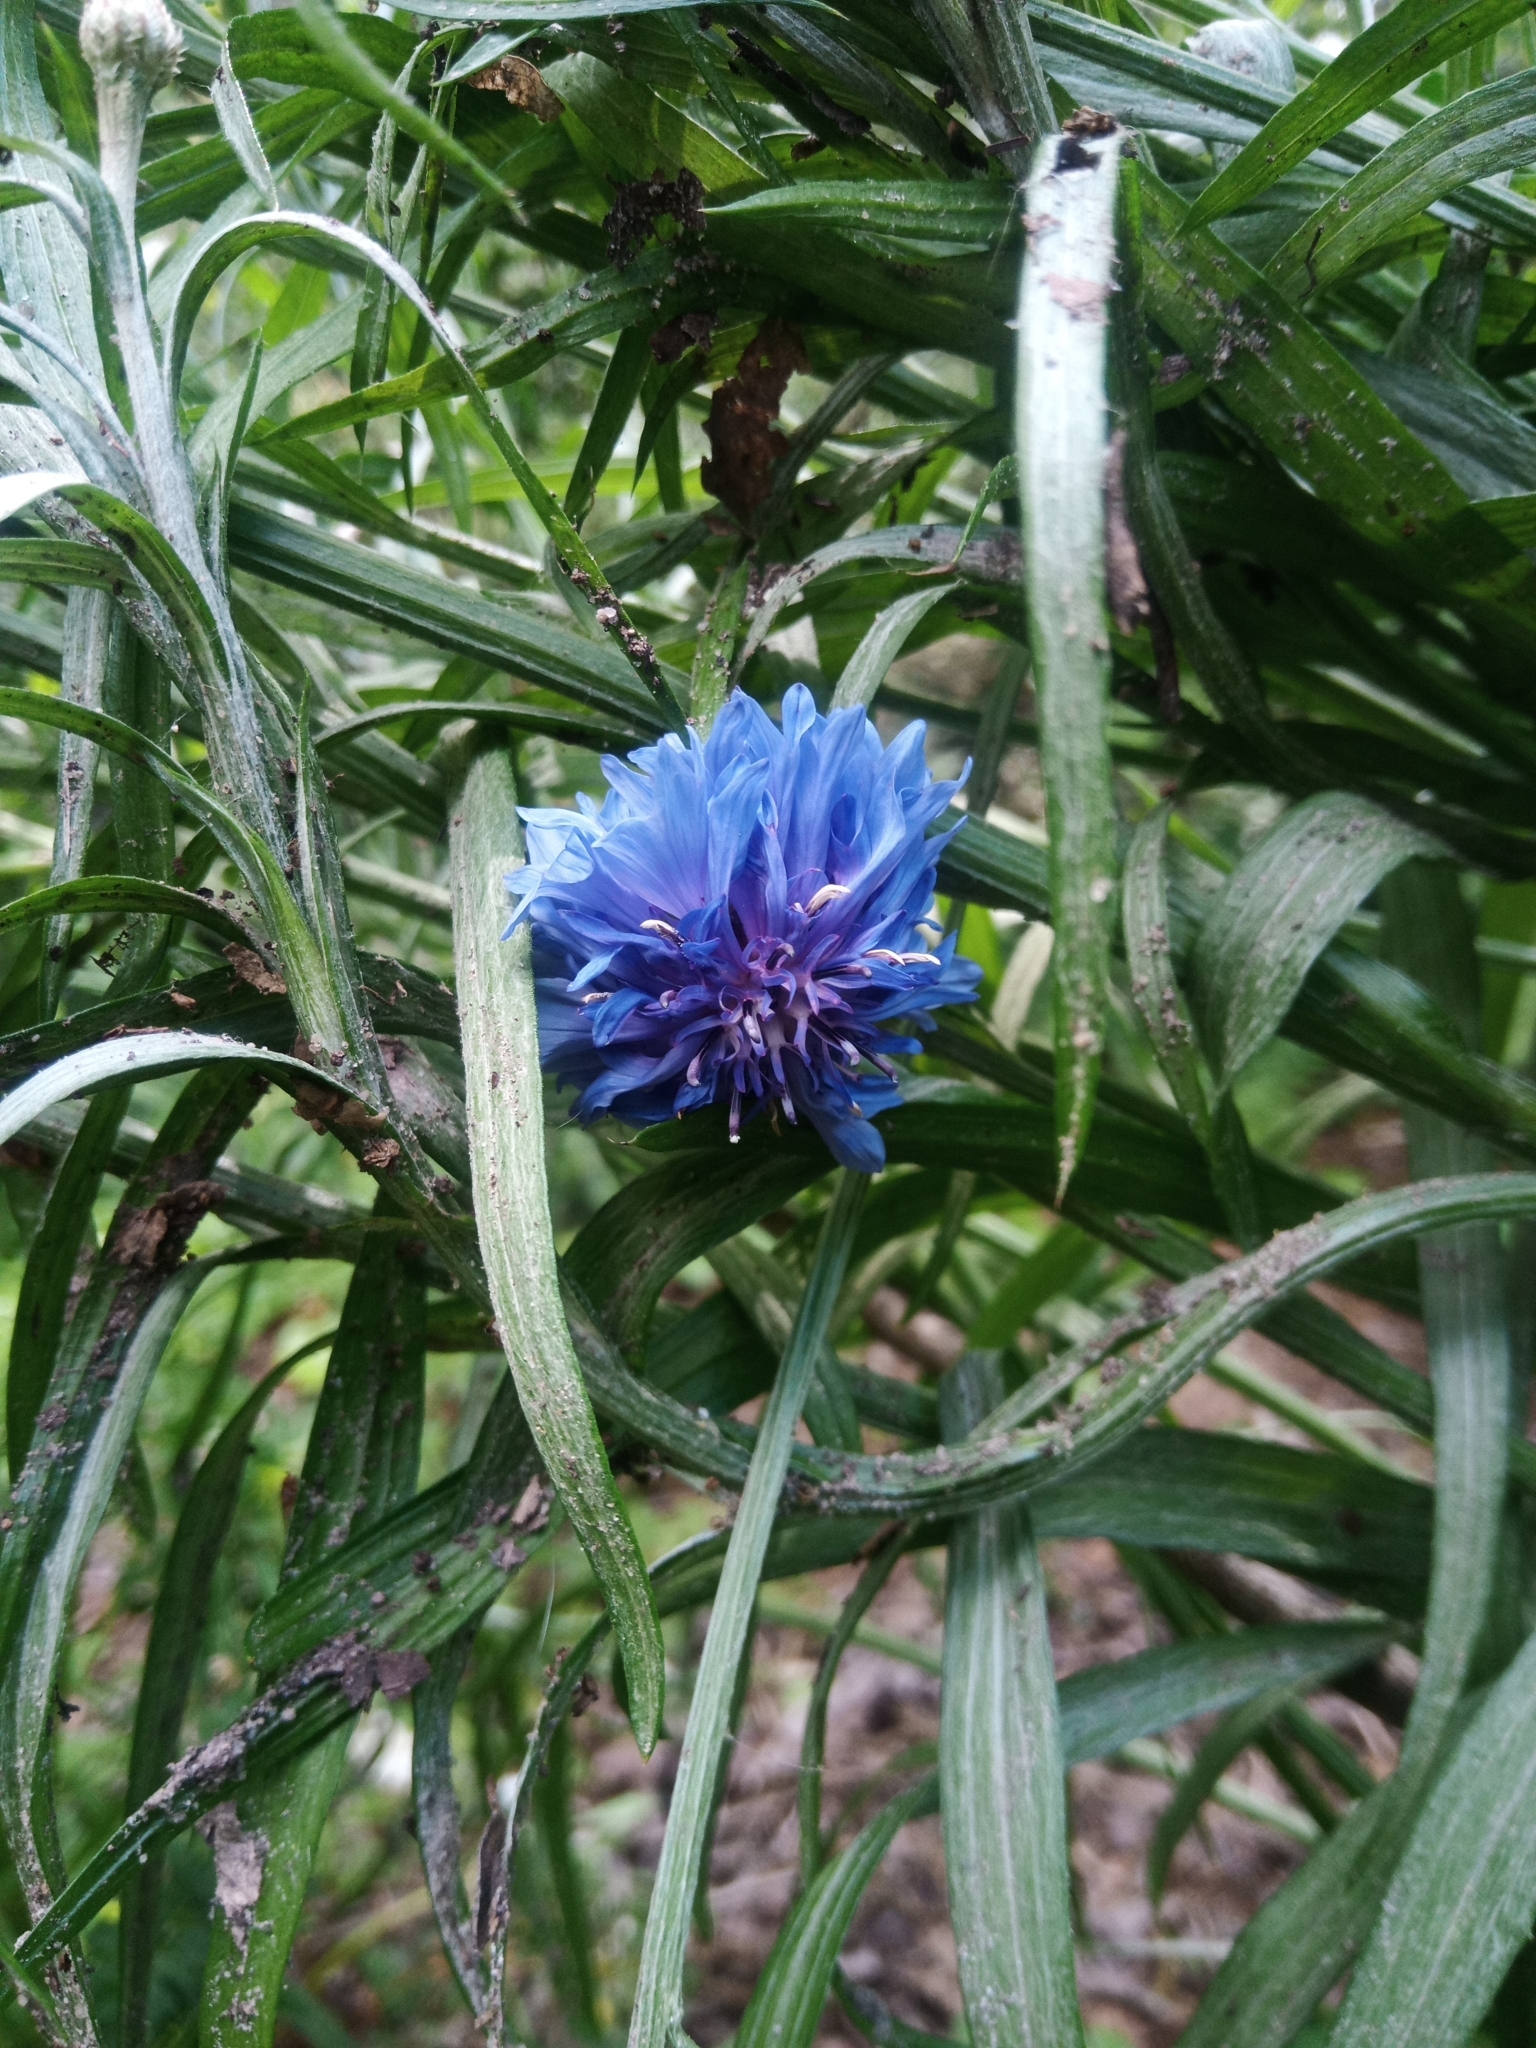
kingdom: Plantae
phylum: Tracheophyta
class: Magnoliopsida
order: Asterales
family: Asteraceae
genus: Centaurea
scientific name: Centaurea cyanus
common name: Cornflower
